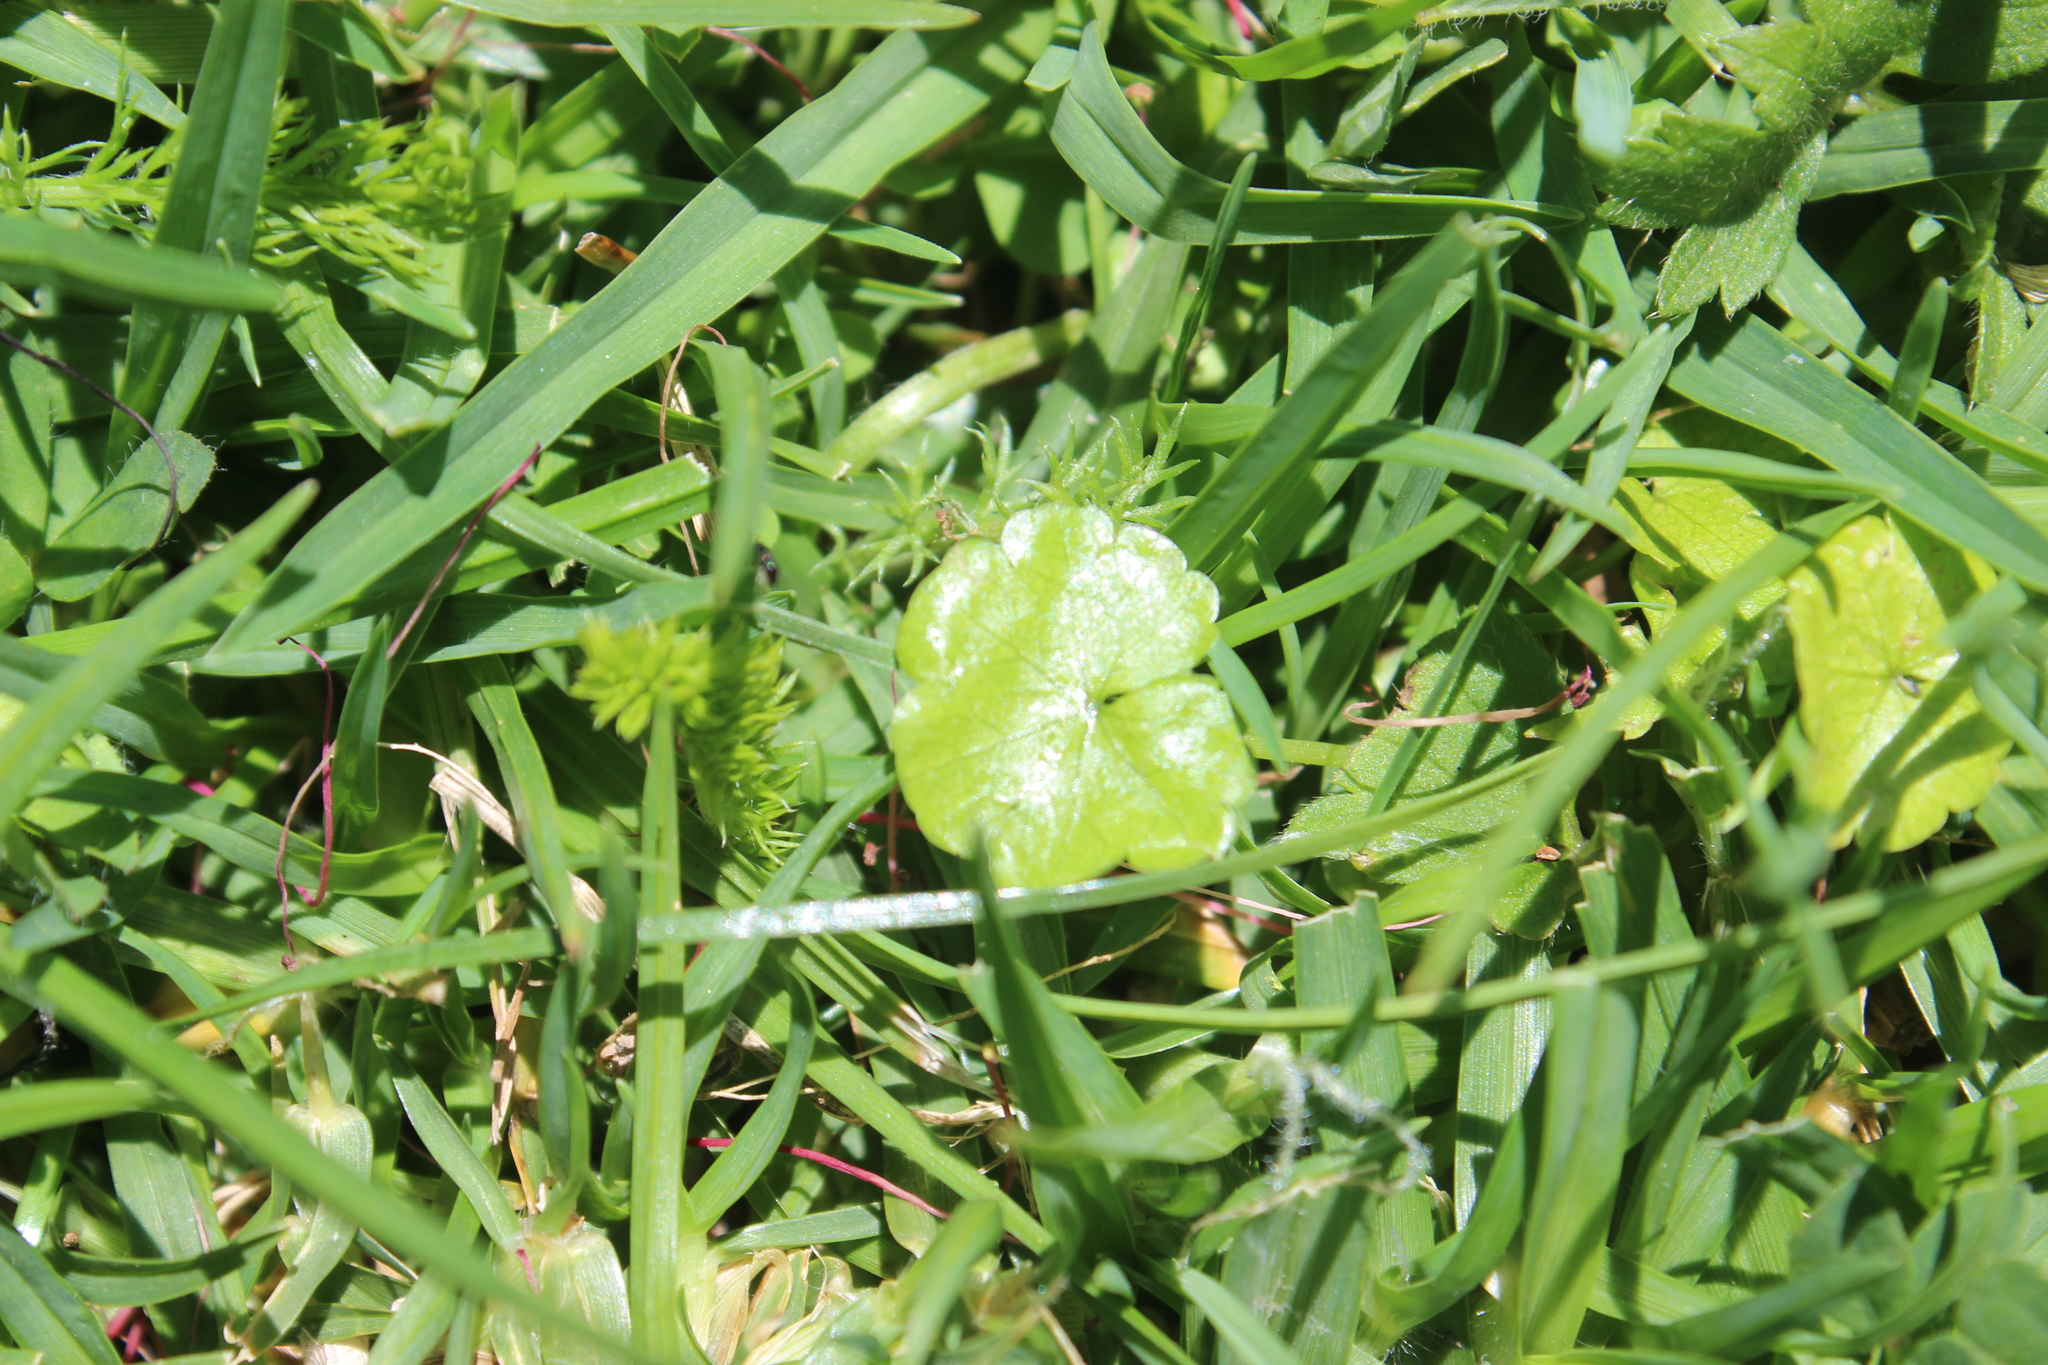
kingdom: Plantae
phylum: Tracheophyta
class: Magnoliopsida
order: Apiales
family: Araliaceae
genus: Hydrocotyle
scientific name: Hydrocotyle pterocarpa
